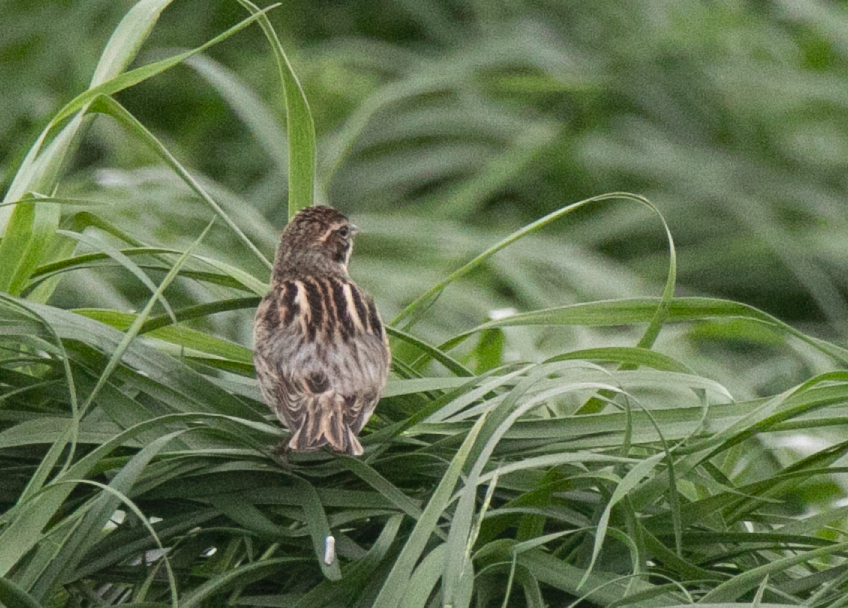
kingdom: Animalia
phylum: Chordata
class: Aves
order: Passeriformes
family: Emberizidae
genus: Emberiza
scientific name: Emberiza schoeniclus
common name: Reed bunting
